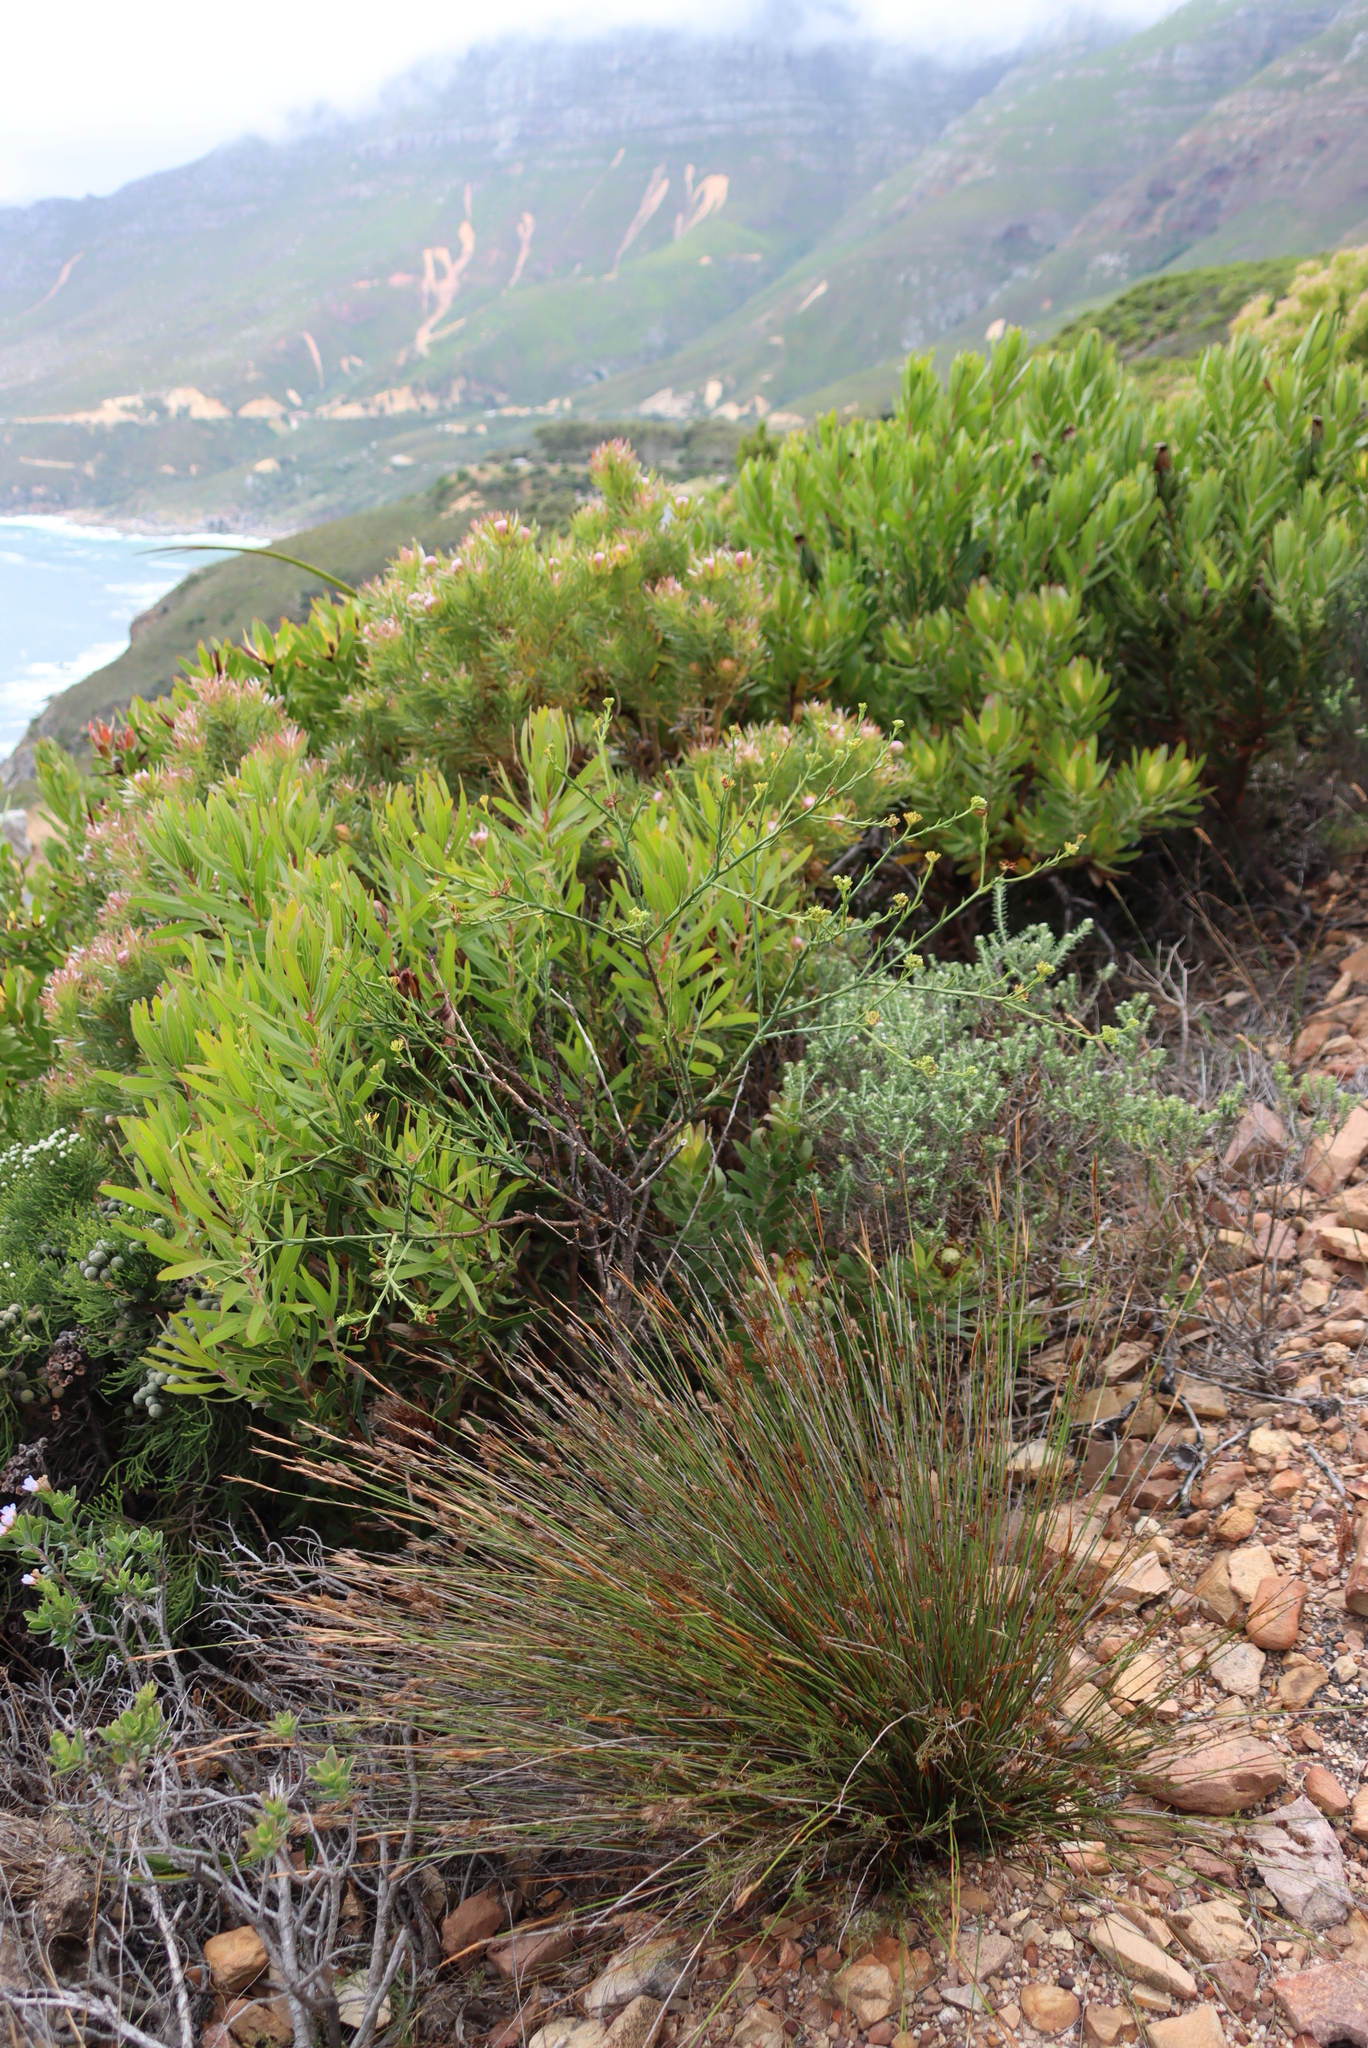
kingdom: Plantae
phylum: Tracheophyta
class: Magnoliopsida
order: Santalales
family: Thesiaceae
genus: Thesium
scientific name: Thesium strictum
